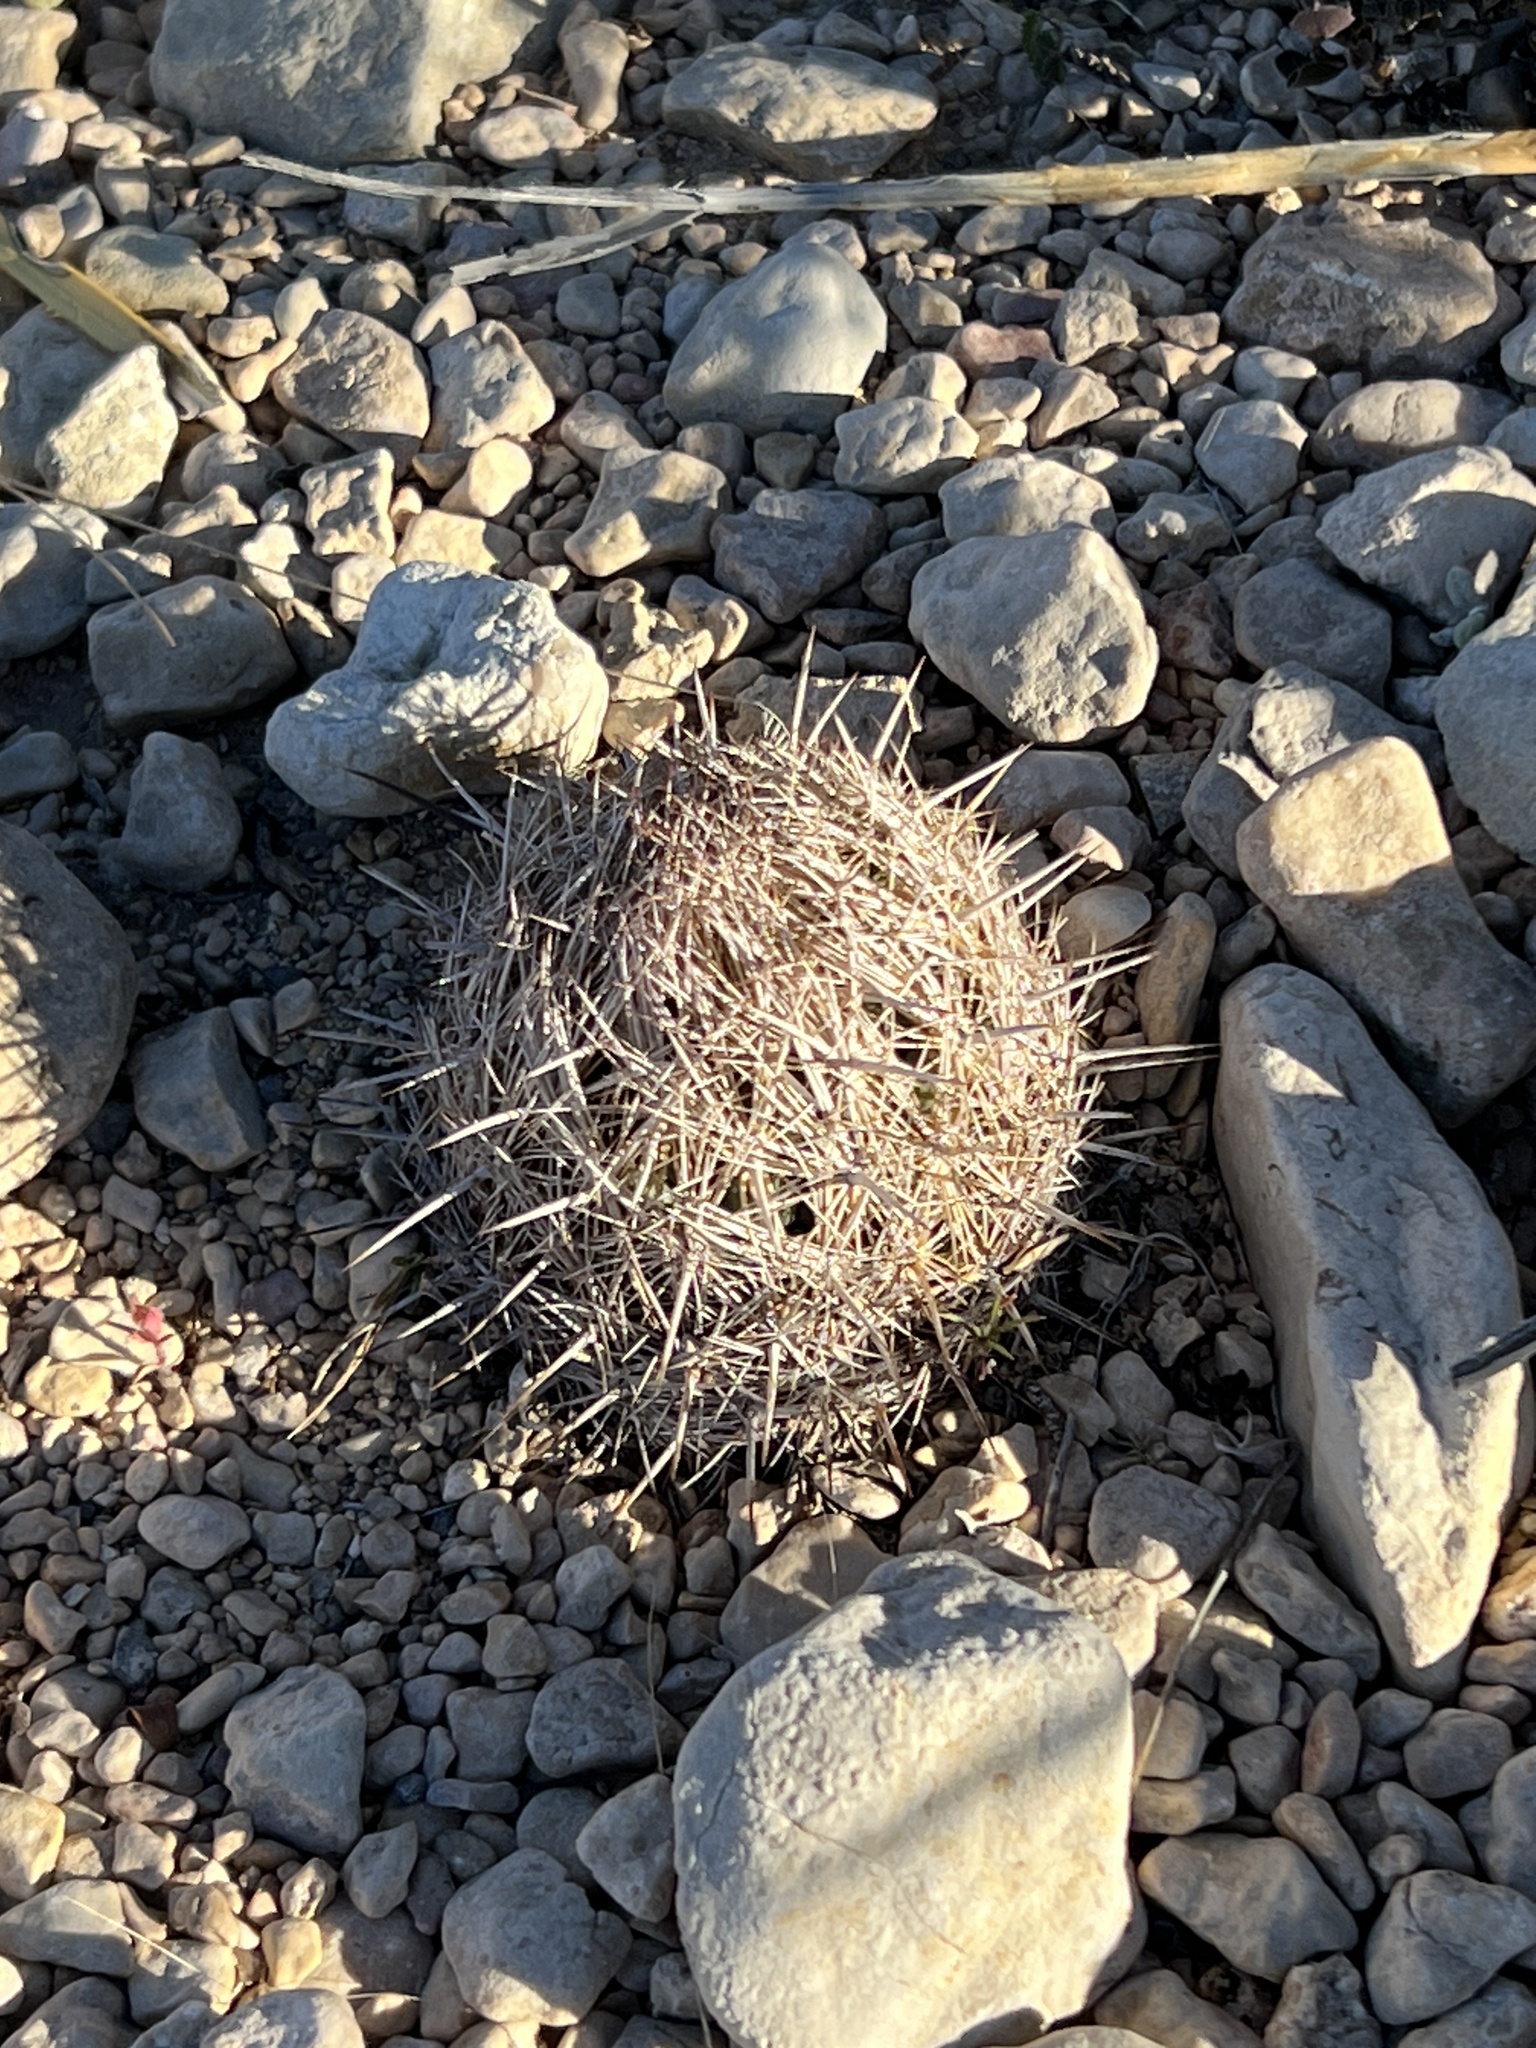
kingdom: Plantae
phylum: Tracheophyta
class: Magnoliopsida
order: Caryophyllales
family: Cactaceae
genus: Coryphantha
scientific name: Coryphantha echinus
